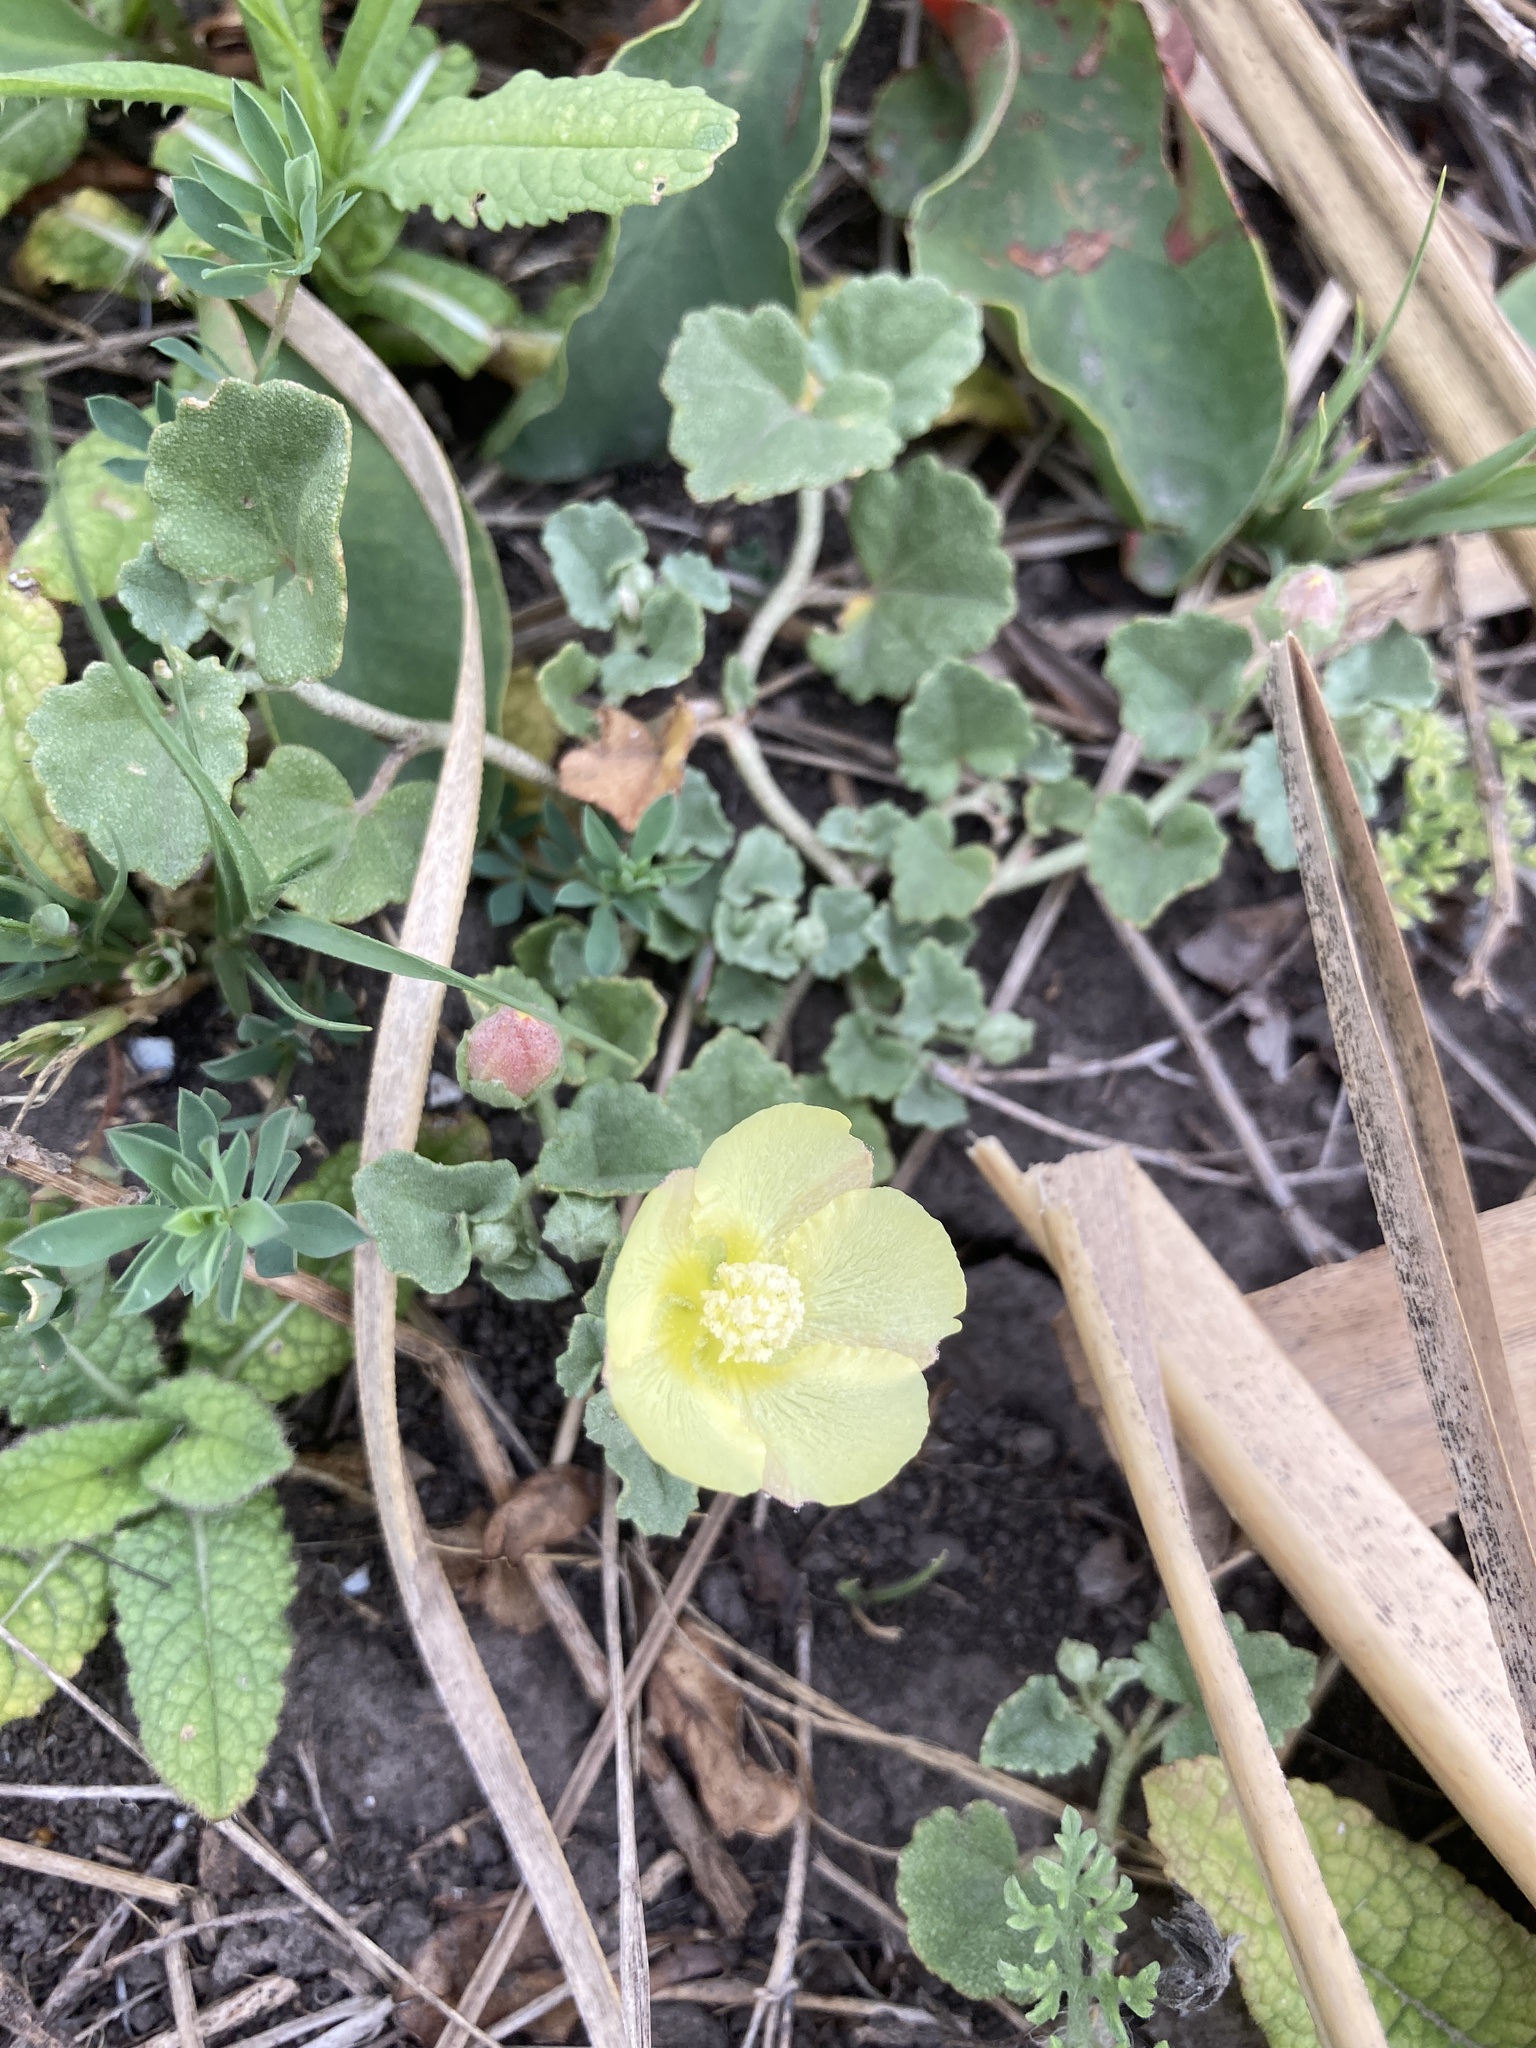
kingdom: Plantae
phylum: Tracheophyta
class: Magnoliopsida
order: Malvales
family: Malvaceae
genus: Malvella
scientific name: Malvella leprosa
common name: Alkali-mallow
